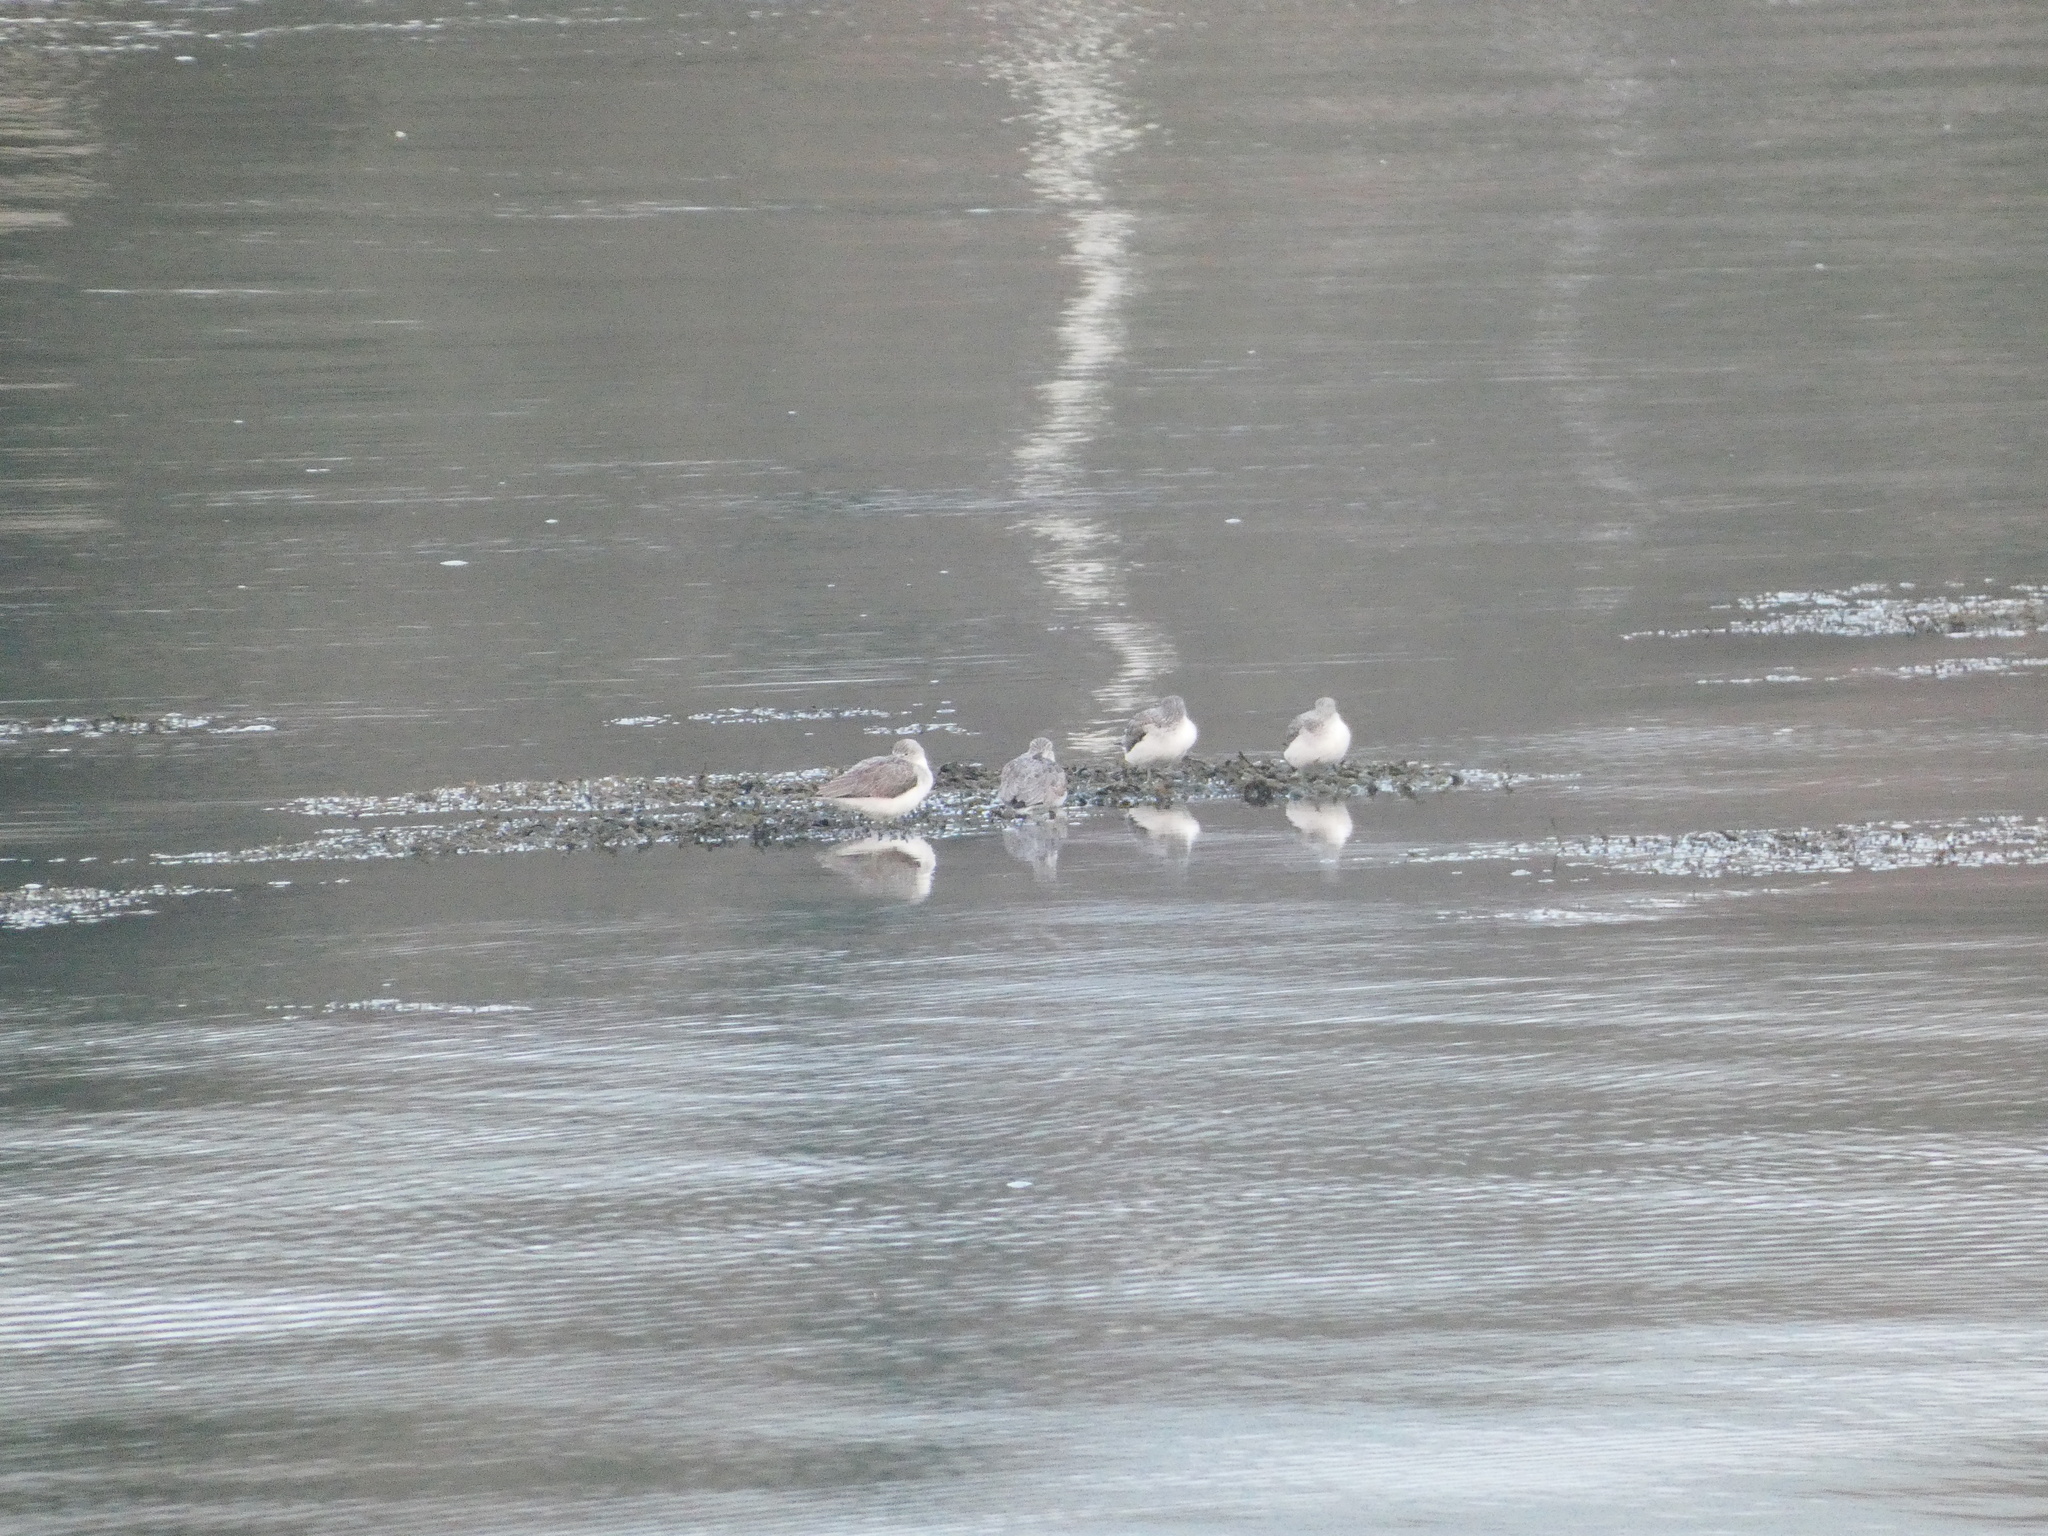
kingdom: Animalia
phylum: Chordata
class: Aves
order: Charadriiformes
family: Scolopacidae
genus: Tringa
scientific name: Tringa nebularia
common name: Common greenshank
